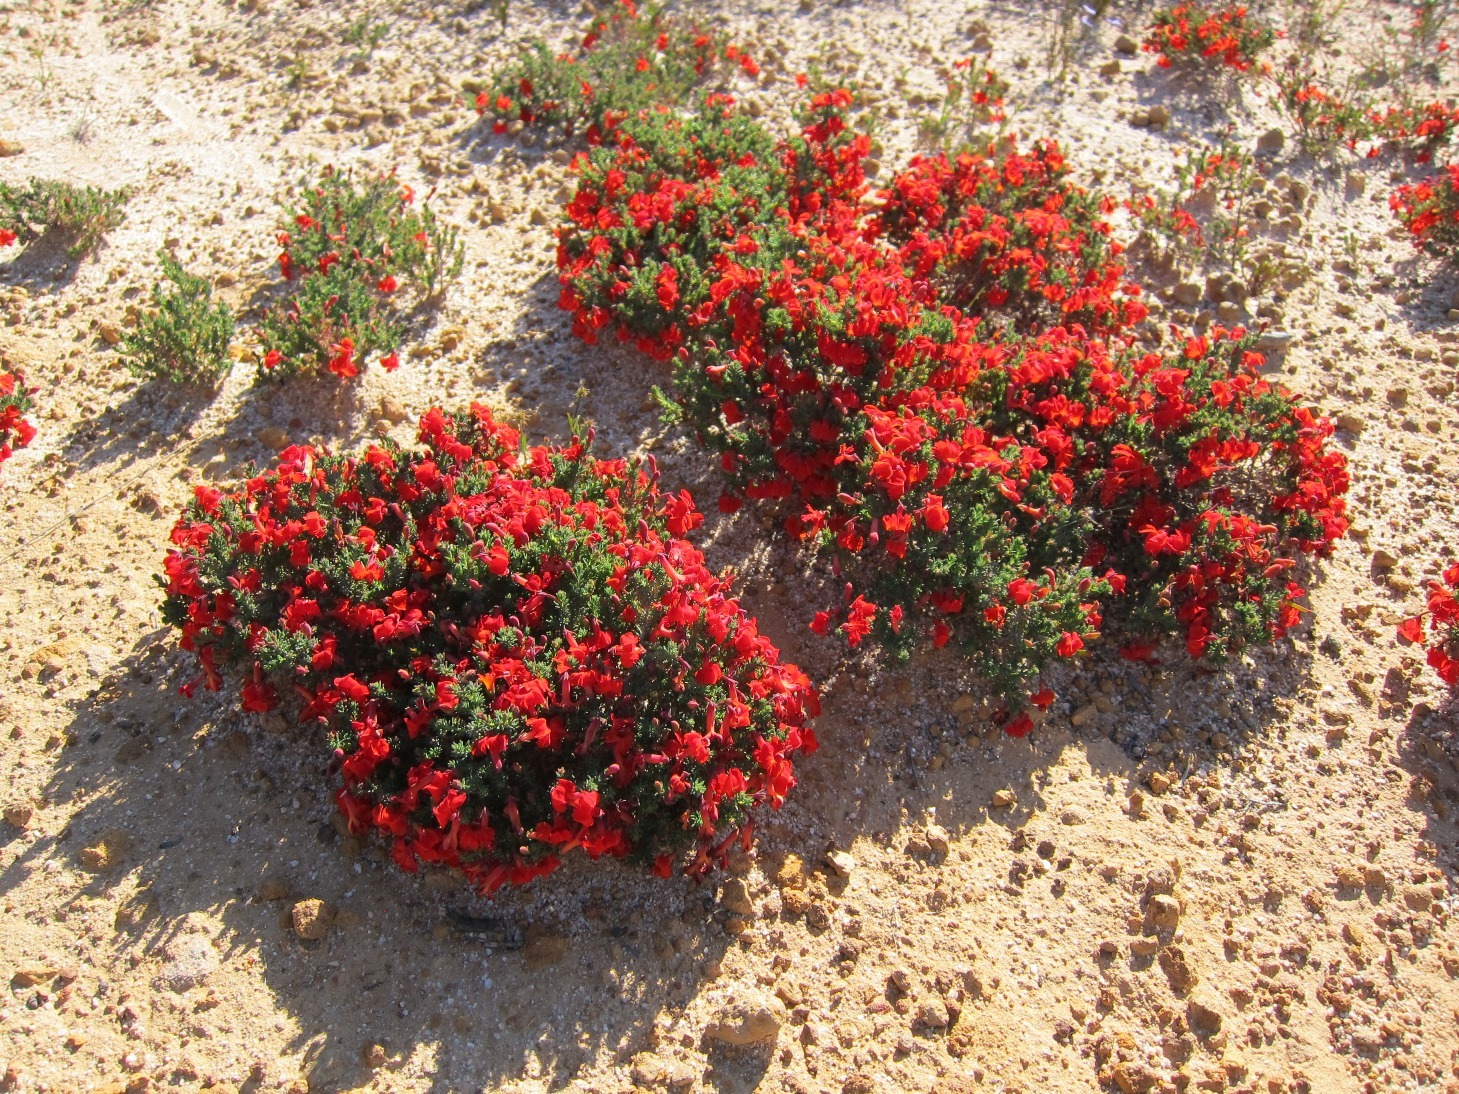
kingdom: Plantae
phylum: Tracheophyta
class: Magnoliopsida
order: Asterales
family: Goodeniaceae
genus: Lechenaultia
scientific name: Lechenaultia formosa
